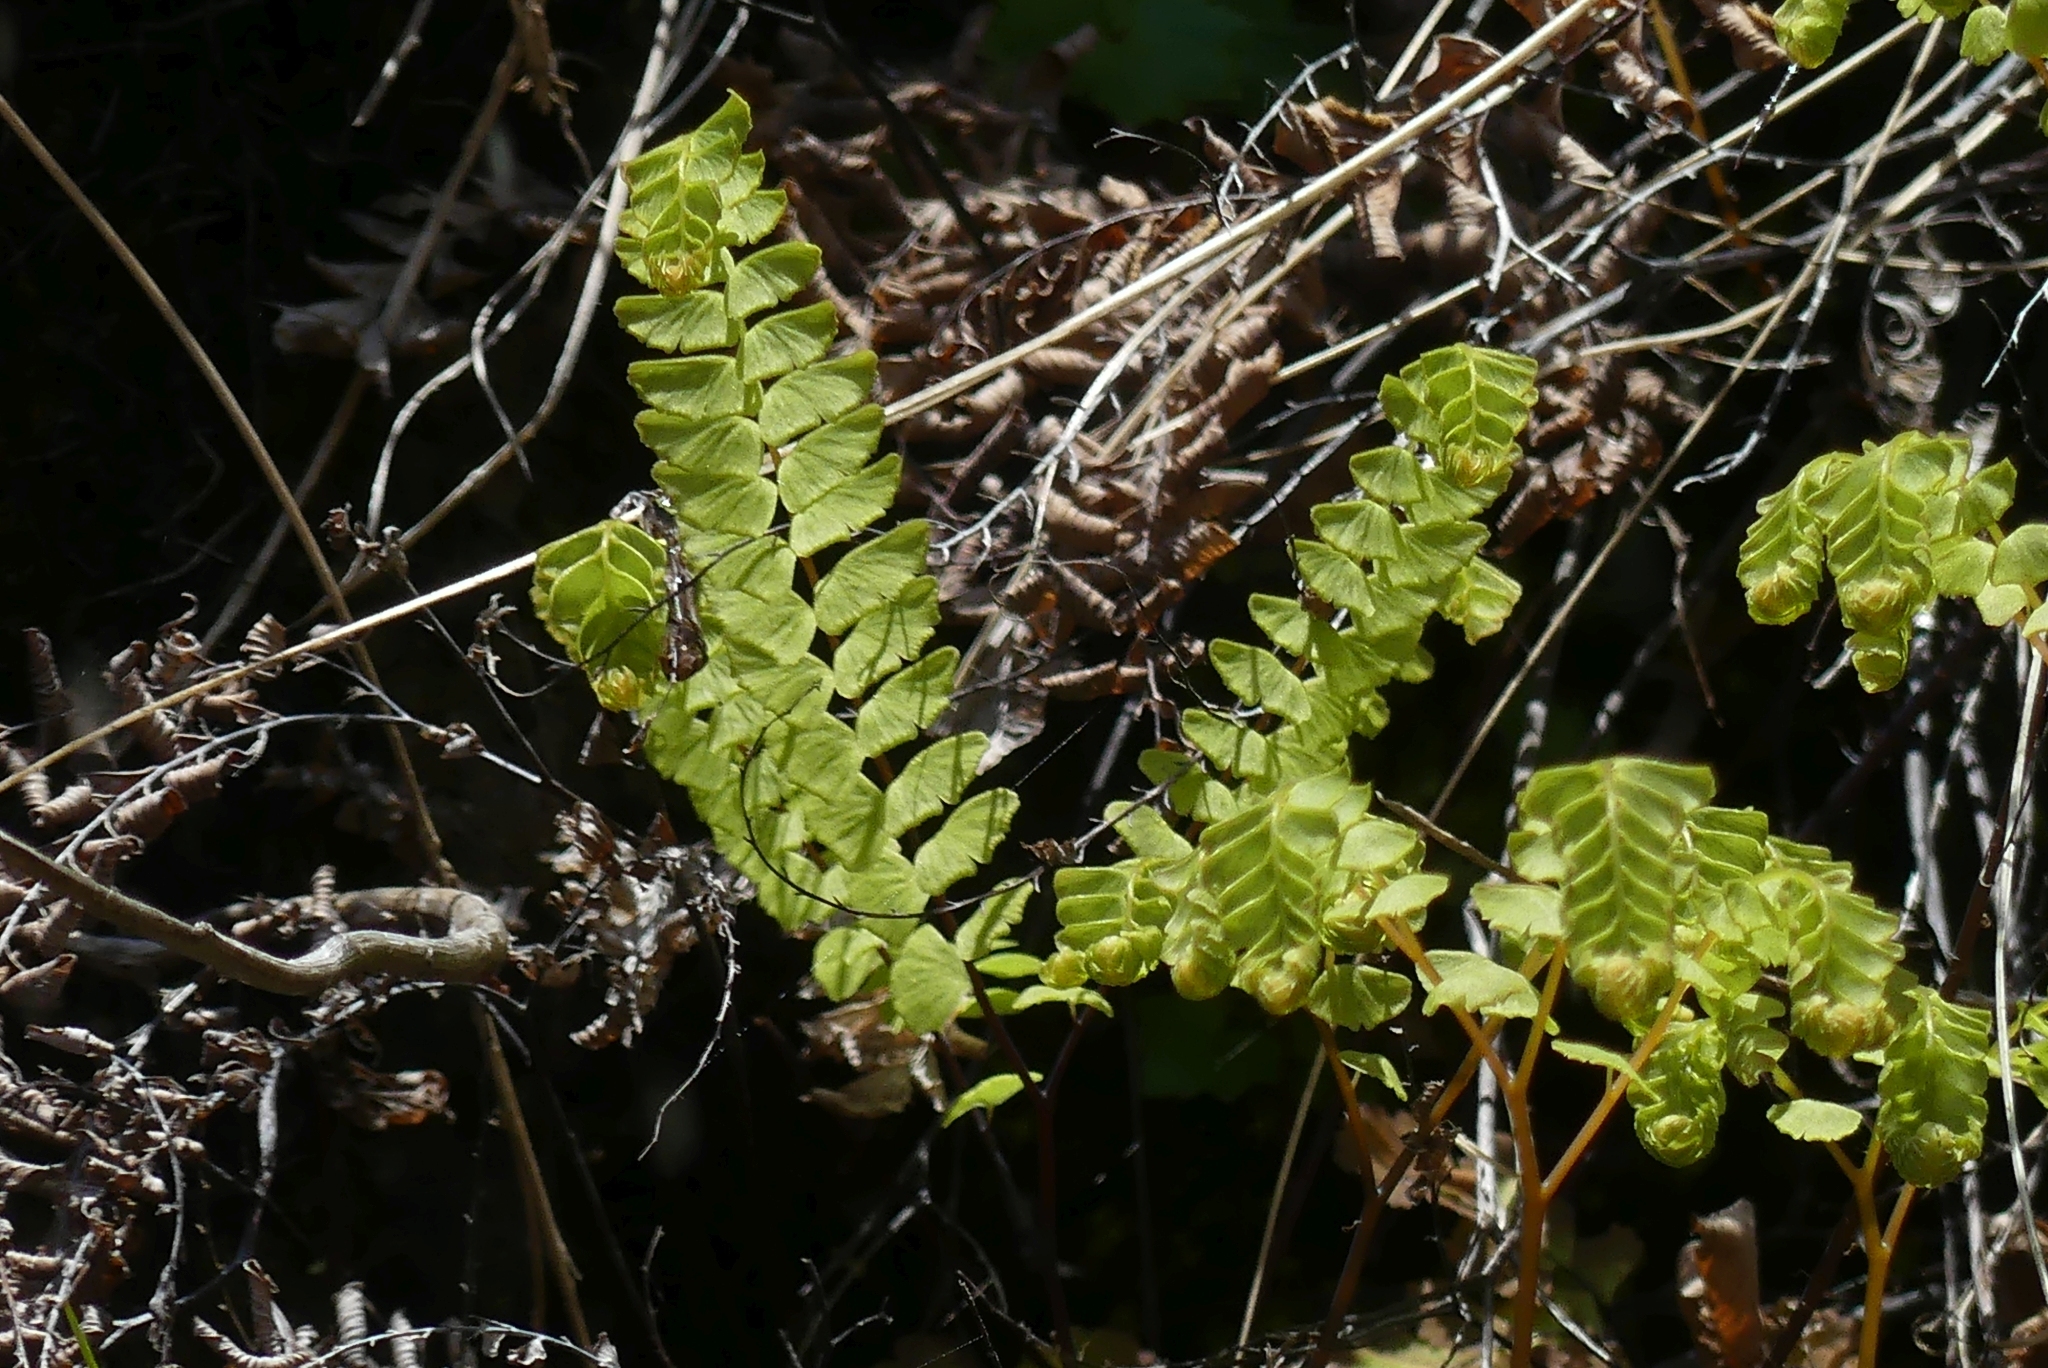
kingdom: Plantae
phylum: Tracheophyta
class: Polypodiopsida
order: Polypodiales
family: Pteridaceae
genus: Adiantum
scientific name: Adiantum aleuticum
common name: Aleutian maidenhair fern
